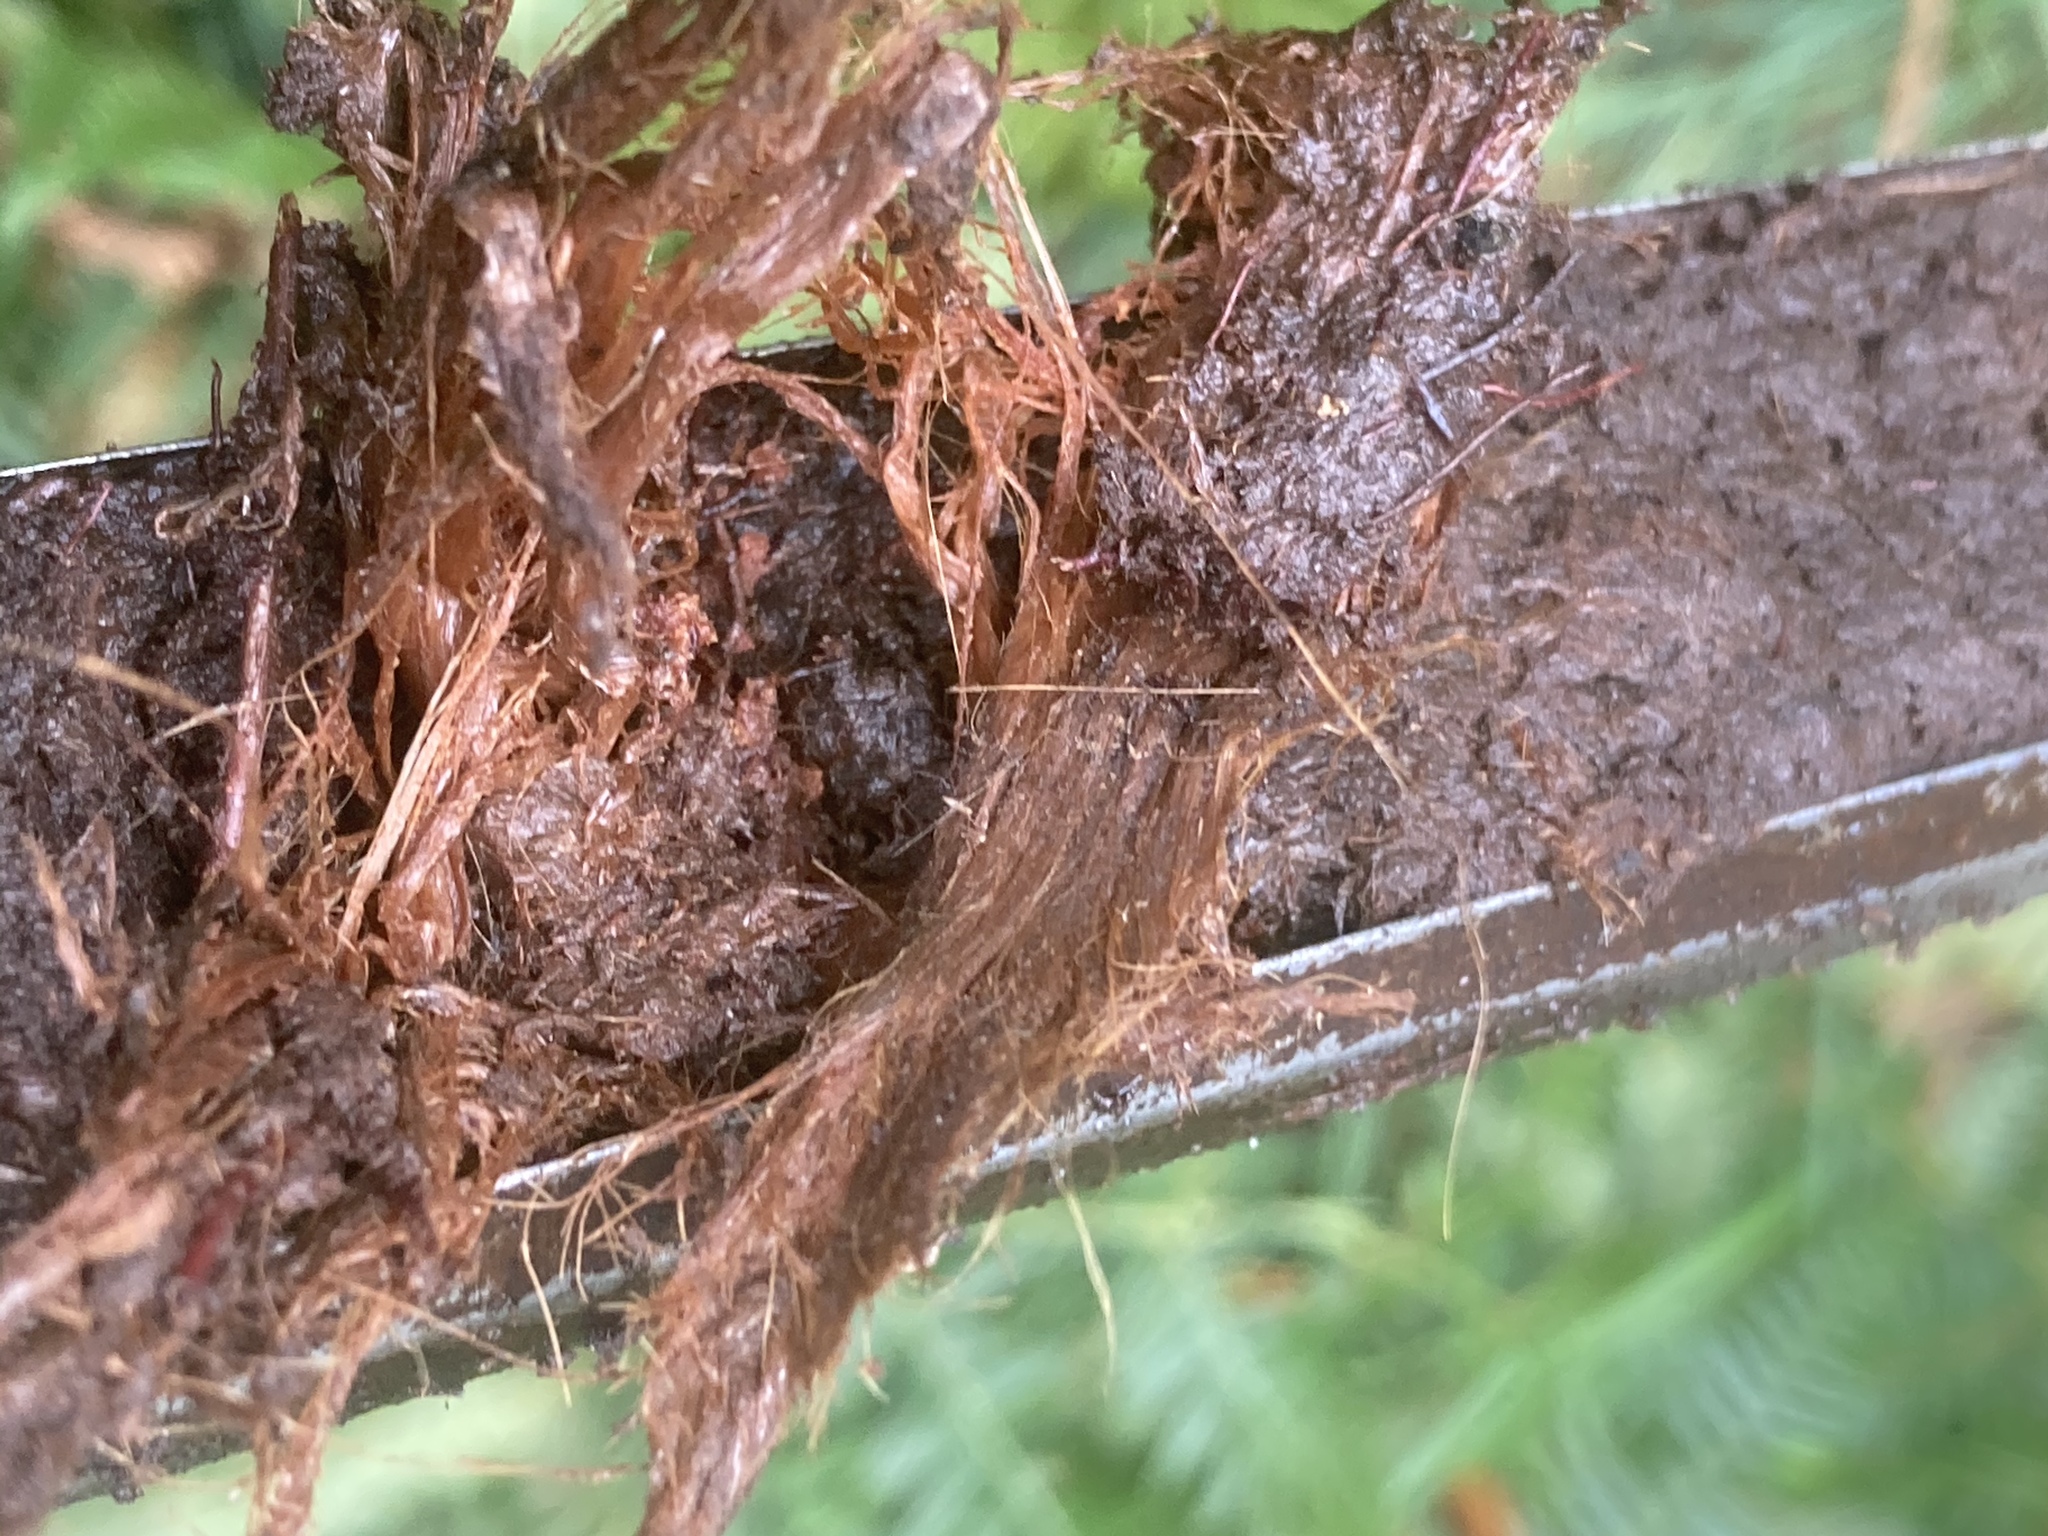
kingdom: Plantae
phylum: Tracheophyta
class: Liliopsida
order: Poales
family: Cyperaceae
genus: Eriophorum
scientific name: Eriophorum vaginatum
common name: Hare's-tail cottongrass
